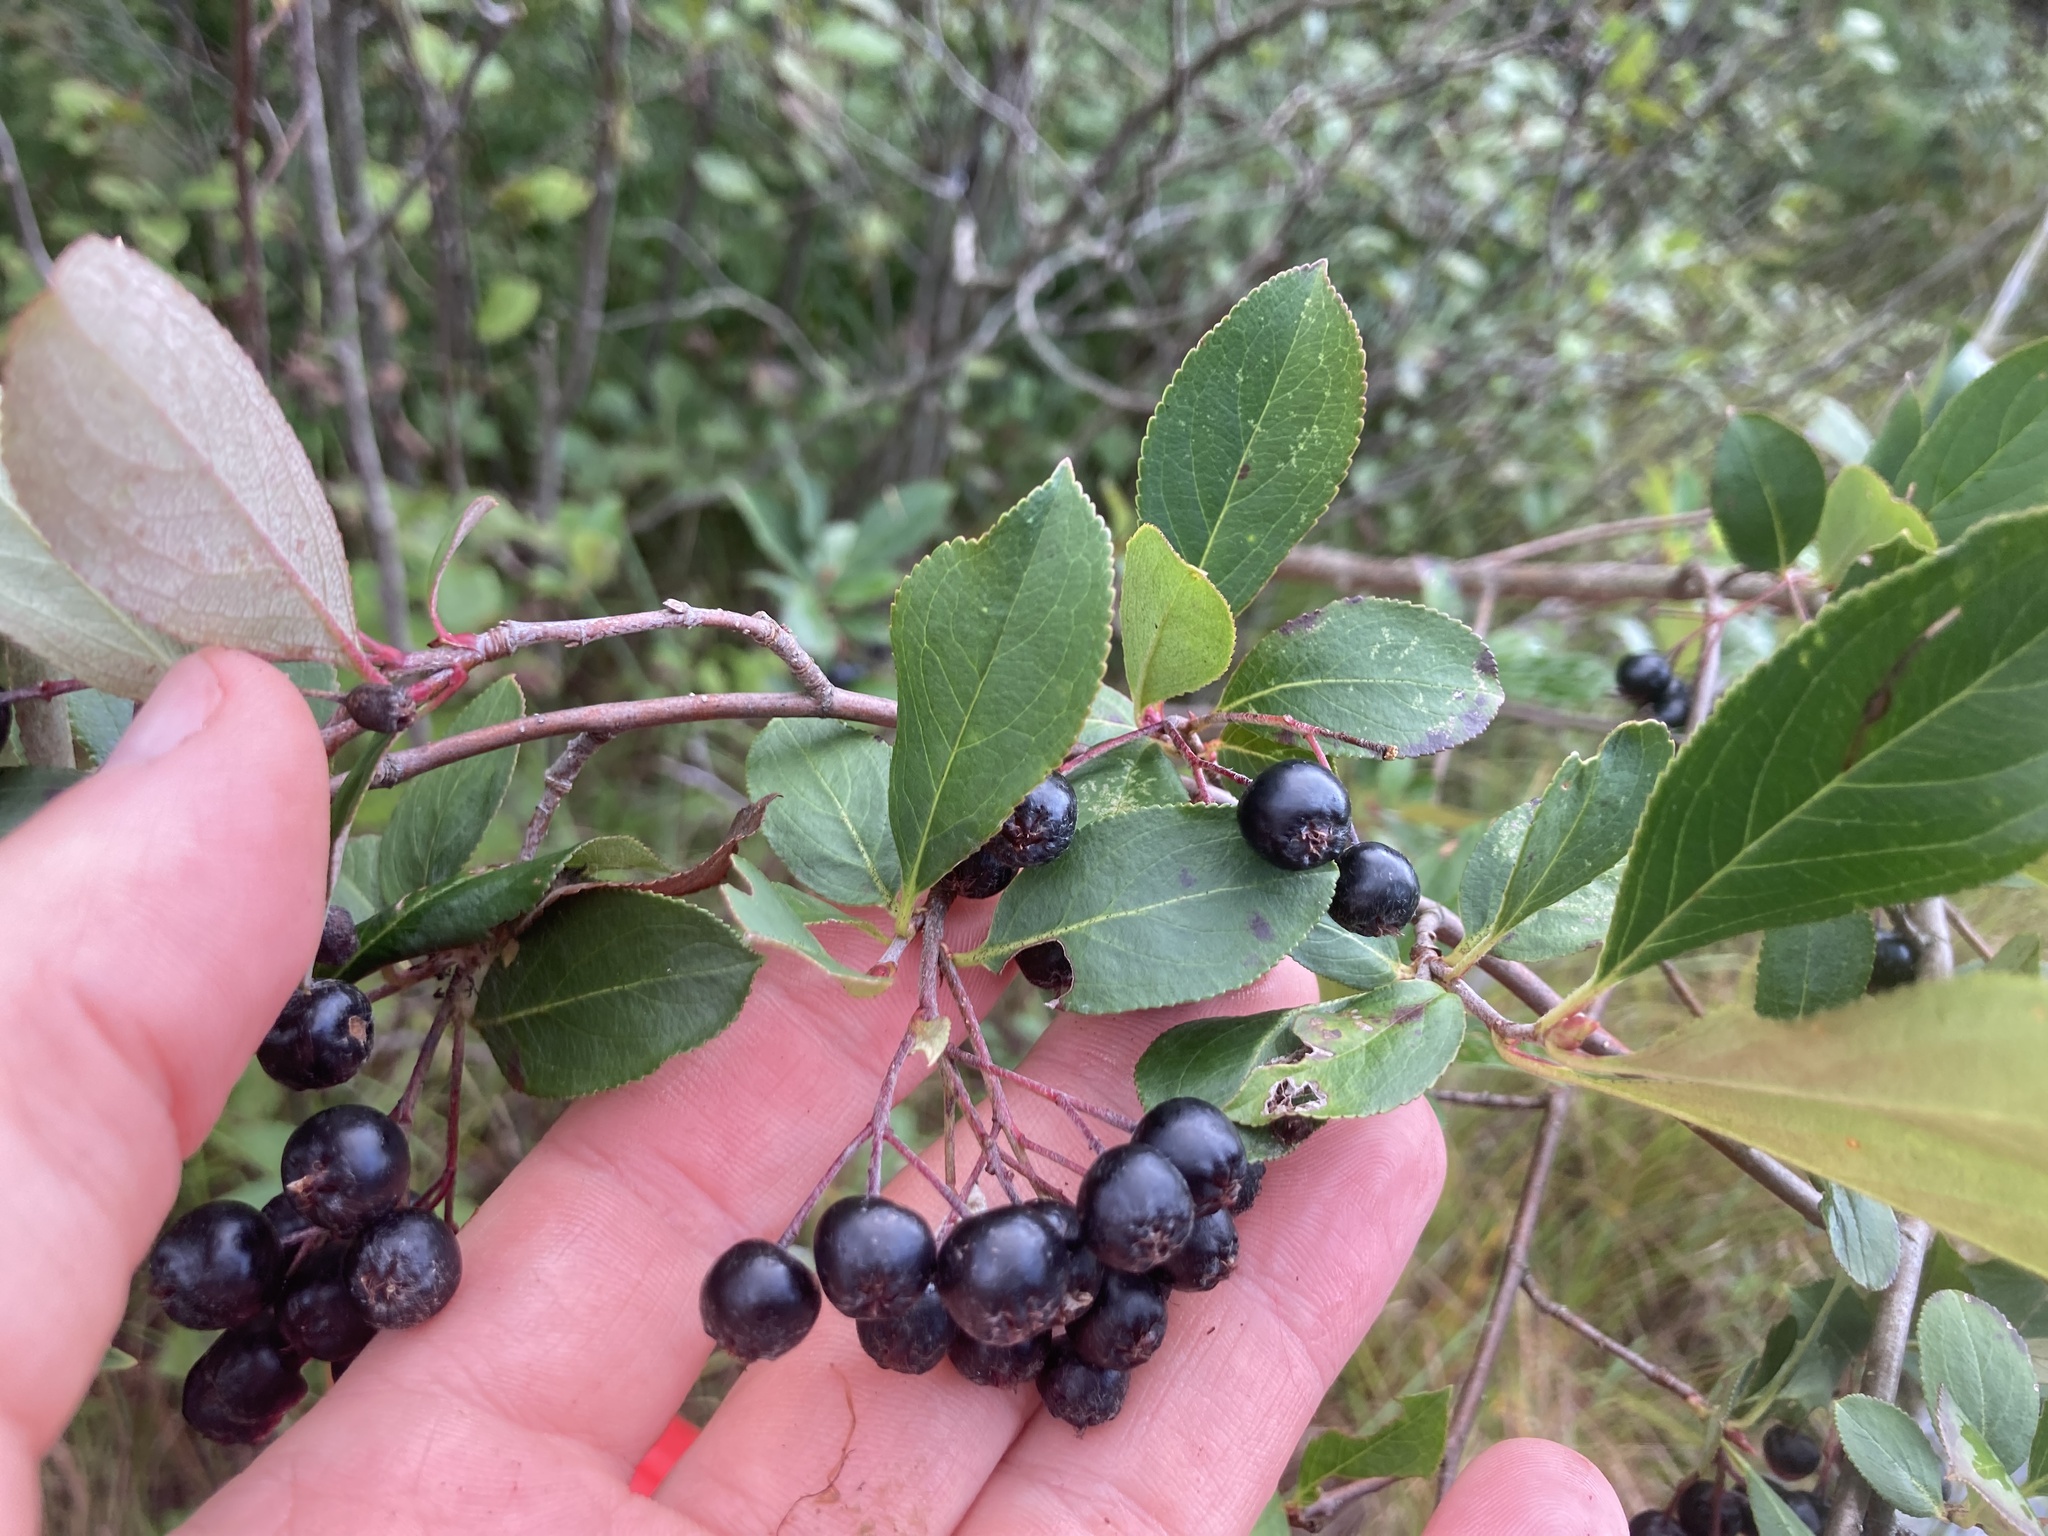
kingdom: Plantae
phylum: Tracheophyta
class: Magnoliopsida
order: Rosales
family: Rosaceae
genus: Aronia
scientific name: Aronia melanocarpa
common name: Black chokeberry
